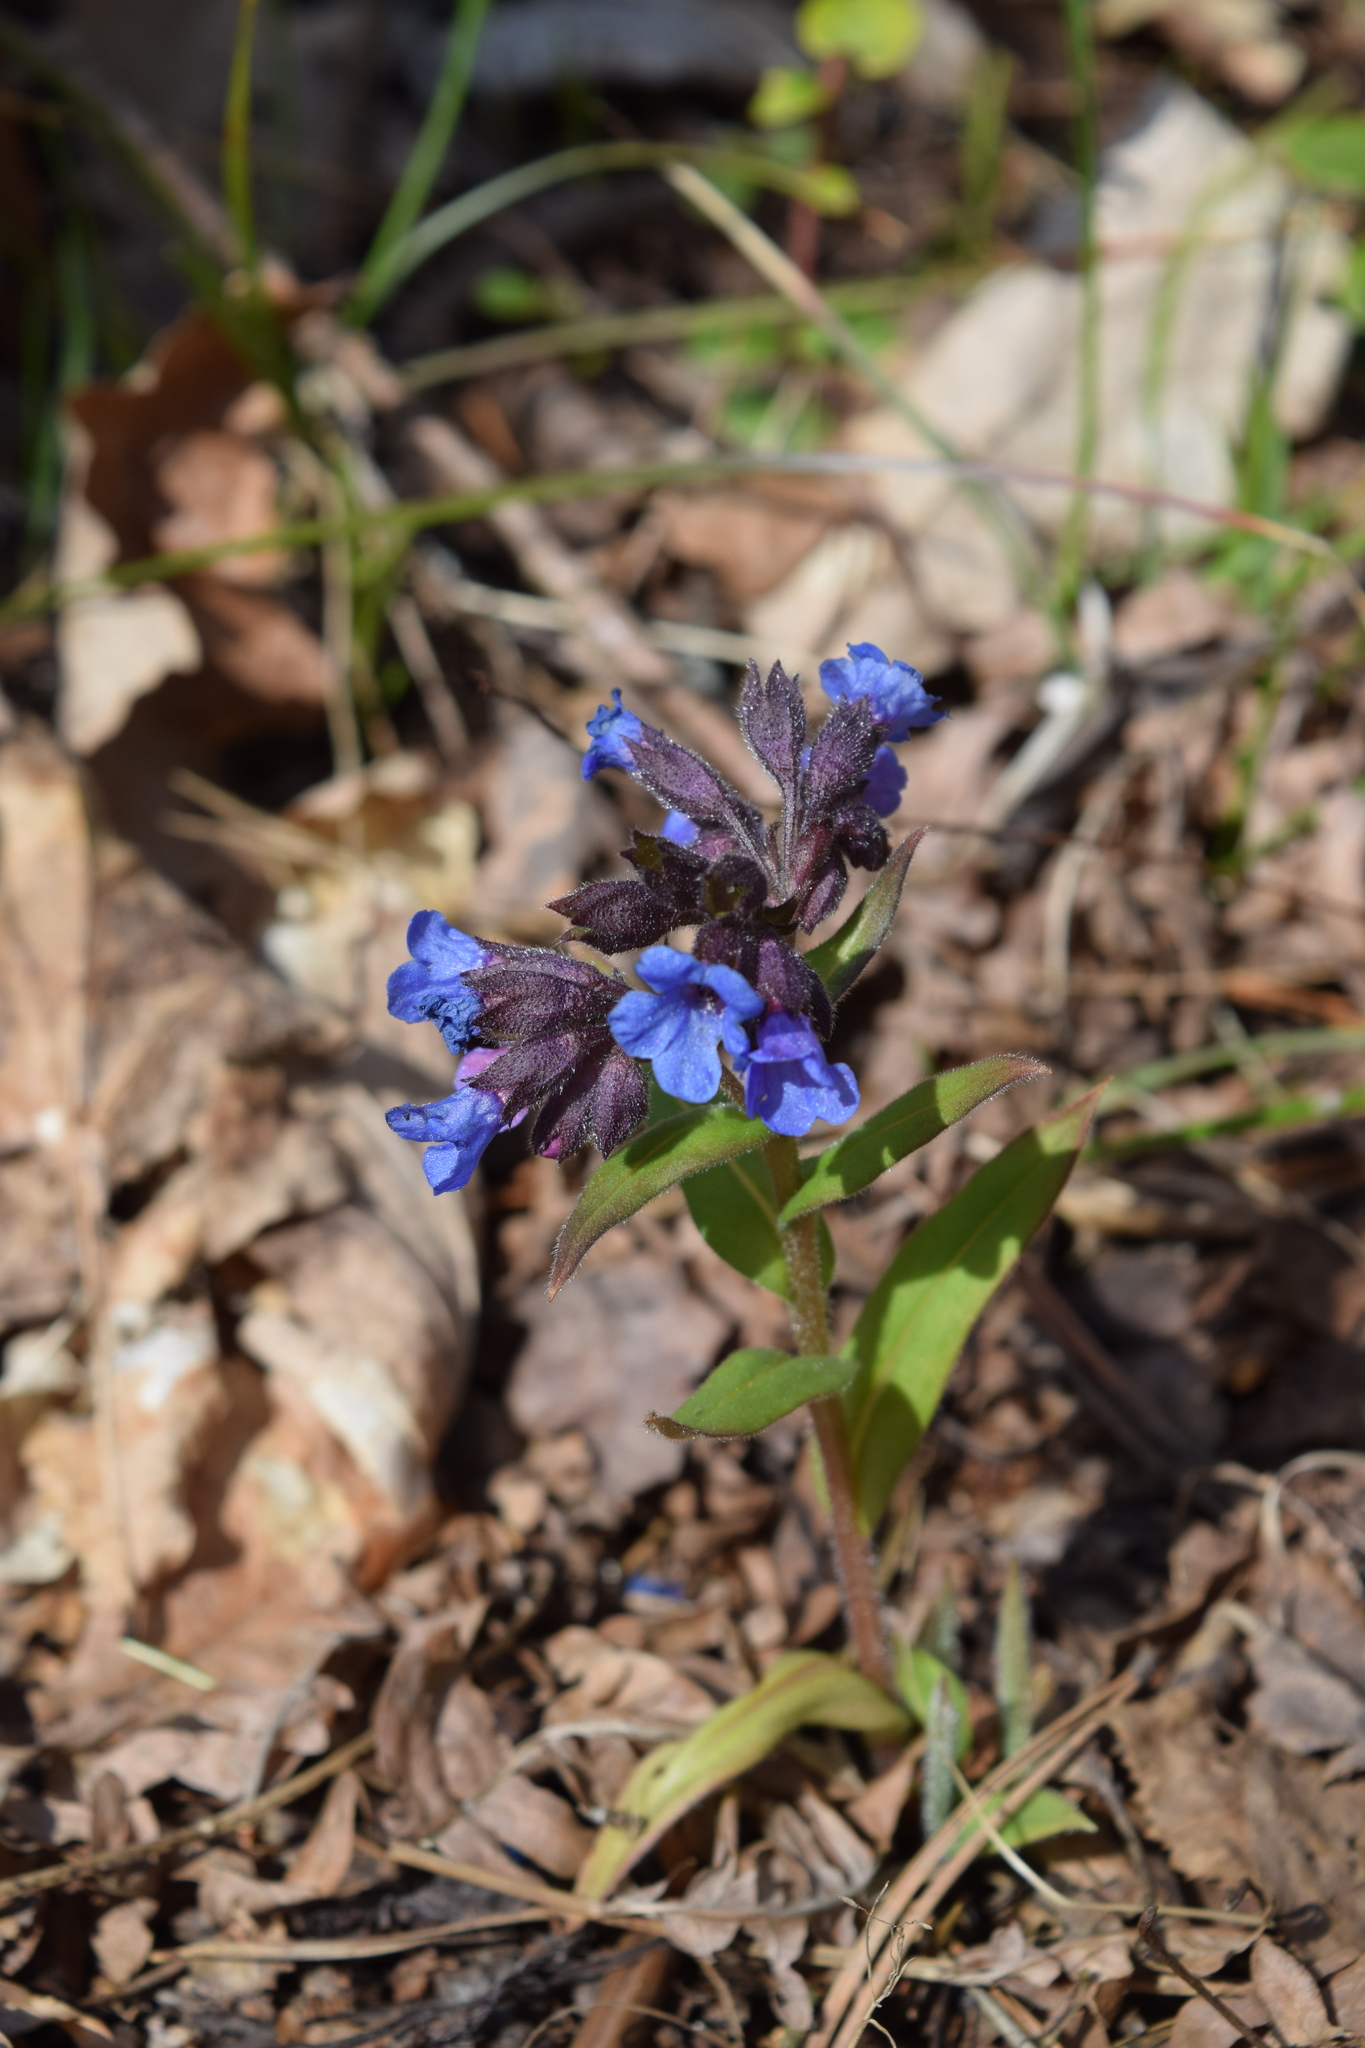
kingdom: Plantae
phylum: Tracheophyta
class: Magnoliopsida
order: Boraginales
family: Boraginaceae
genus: Pulmonaria
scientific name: Pulmonaria angustifolia
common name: Blue cowslip
